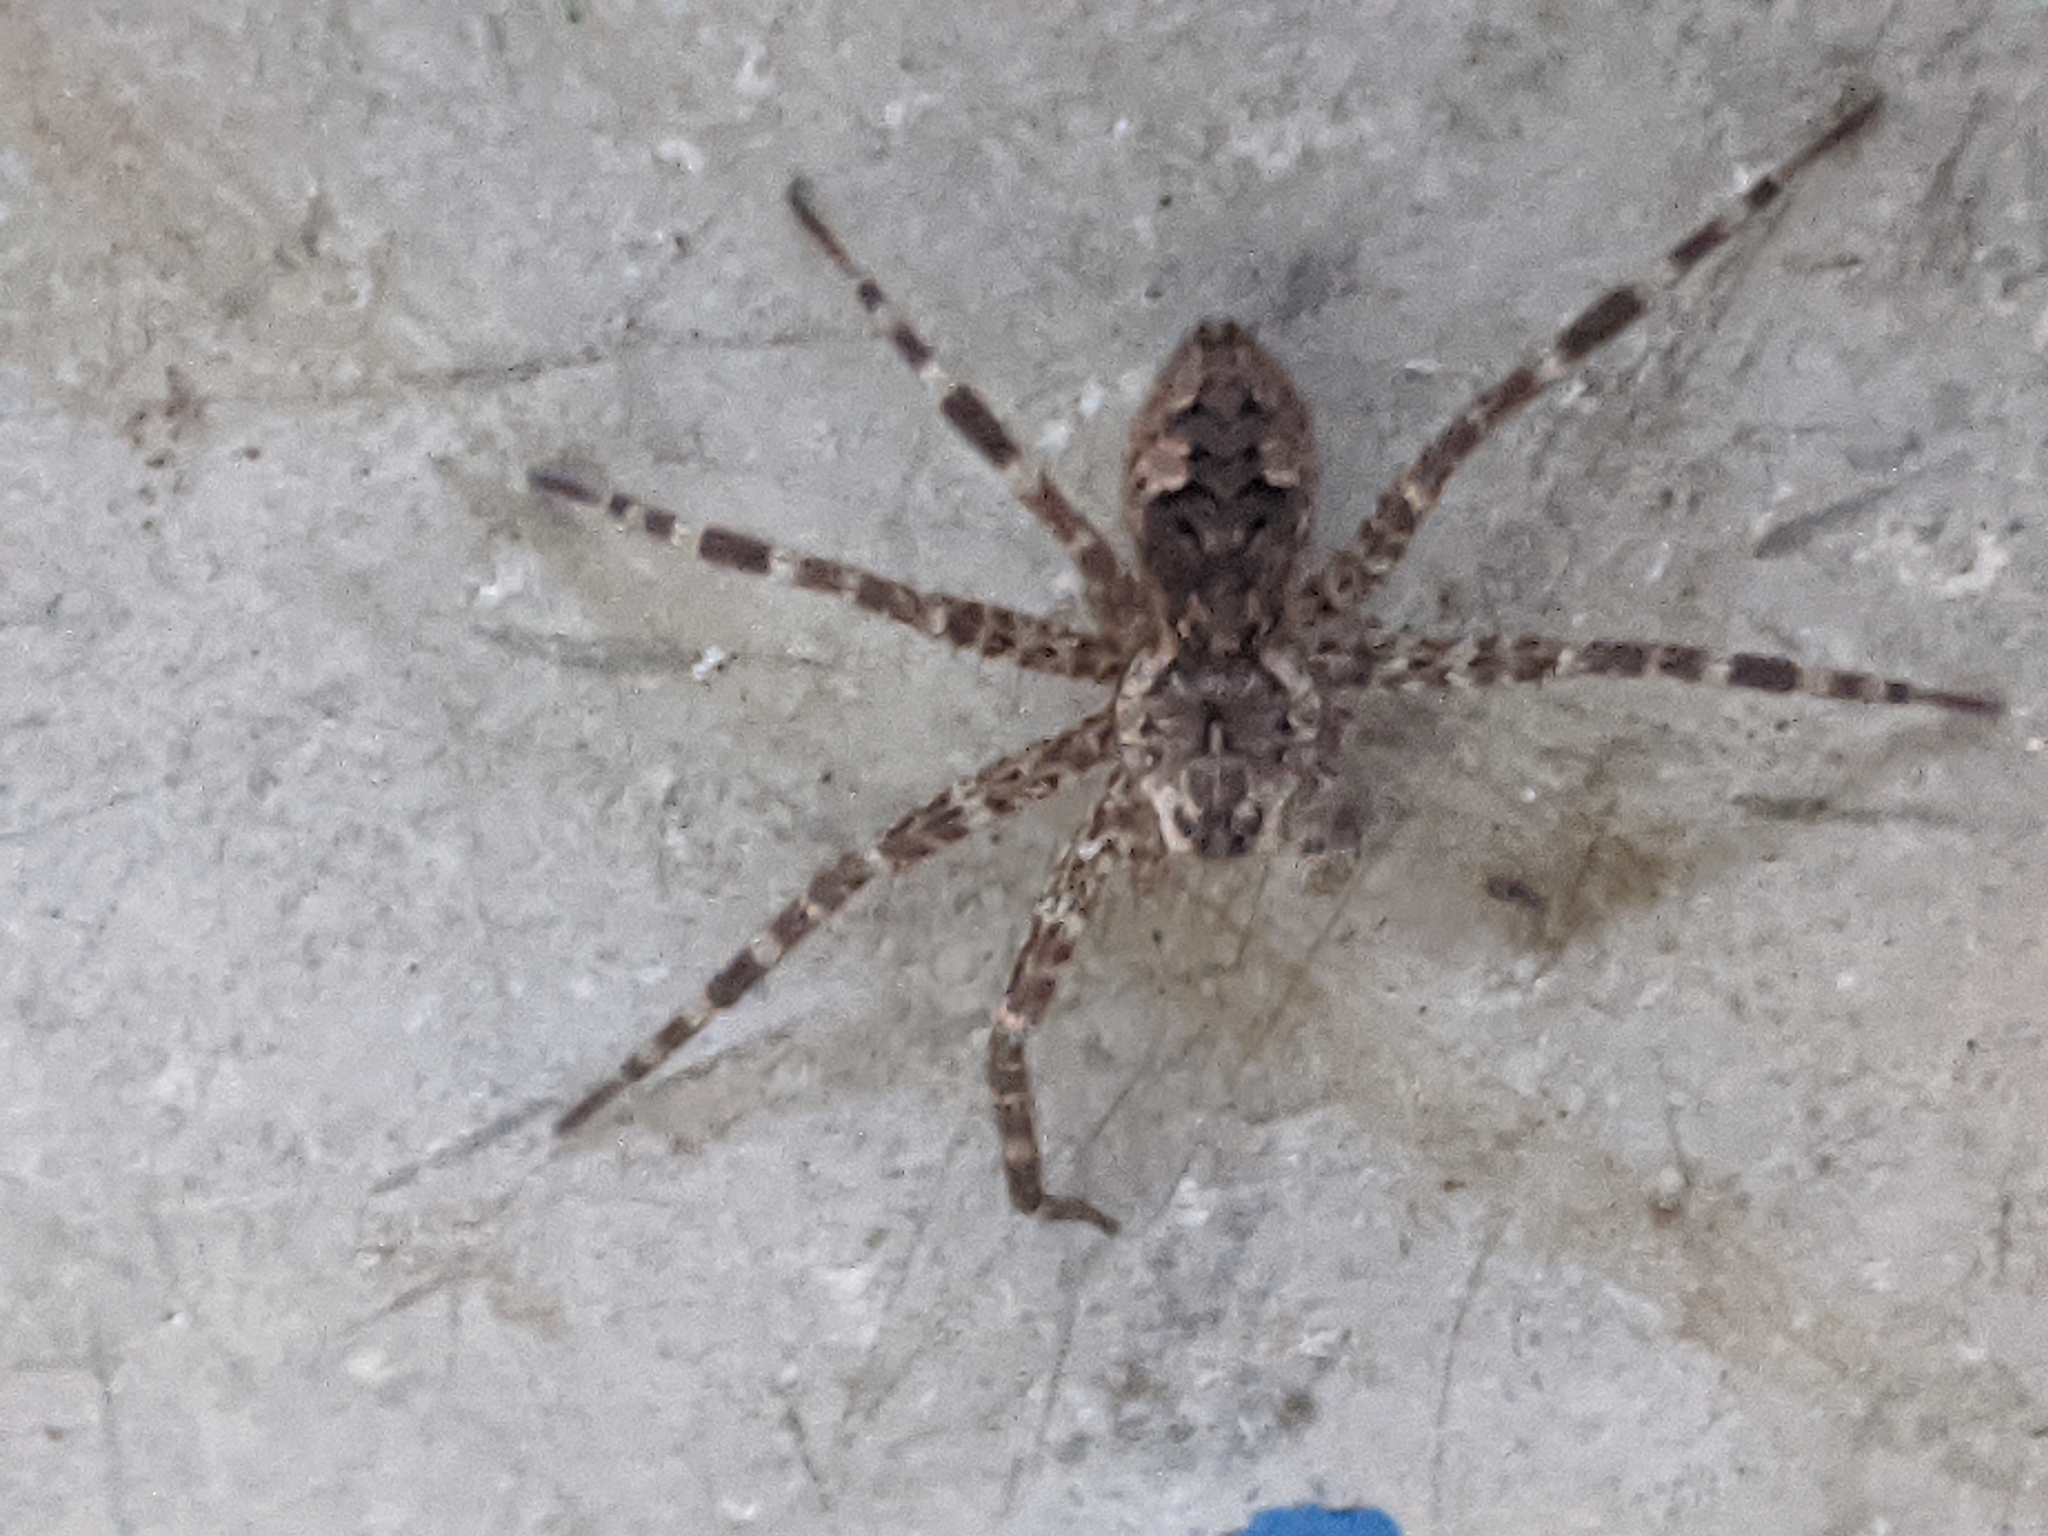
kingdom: Animalia
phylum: Arthropoda
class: Arachnida
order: Araneae
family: Pisauridae
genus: Dolomedes
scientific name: Dolomedes tenebrosus
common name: Dark fishing spider
